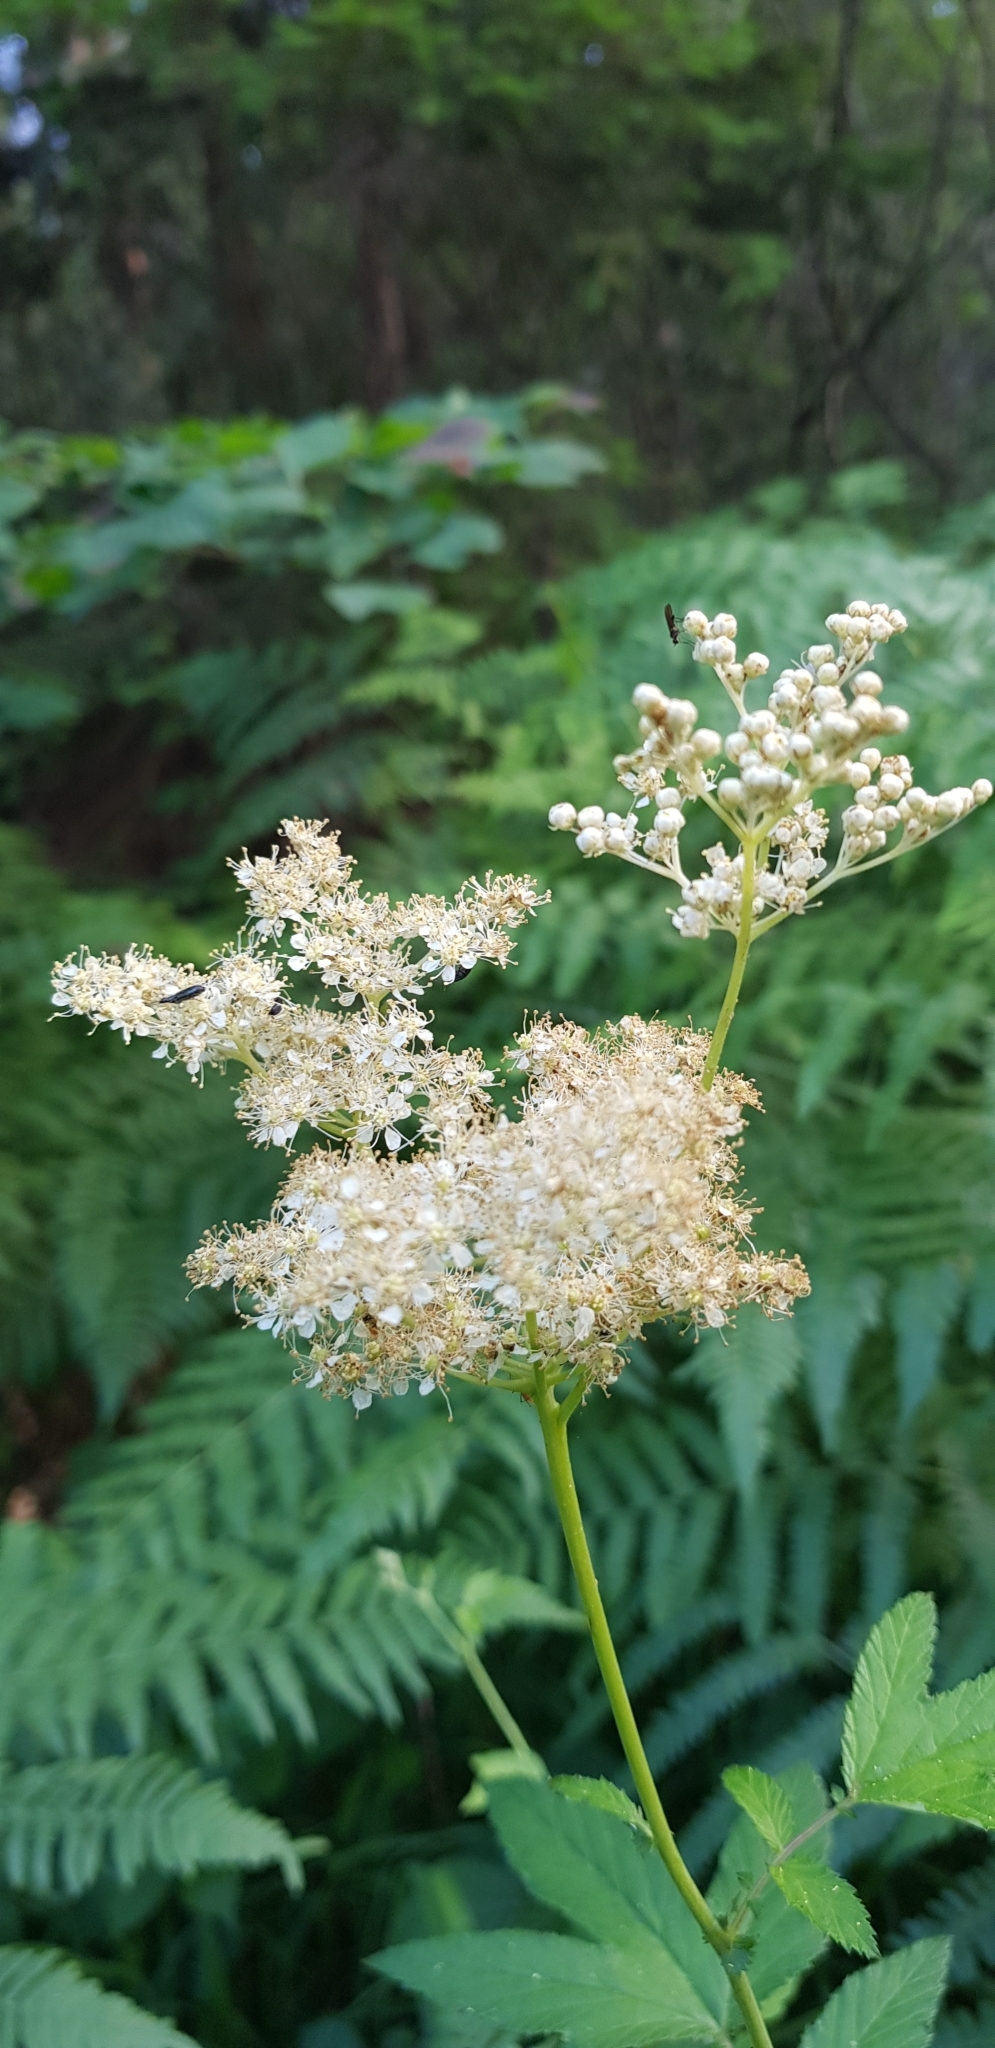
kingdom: Plantae
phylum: Tracheophyta
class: Magnoliopsida
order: Rosales
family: Rosaceae
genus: Filipendula
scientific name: Filipendula ulmaria
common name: Meadowsweet
